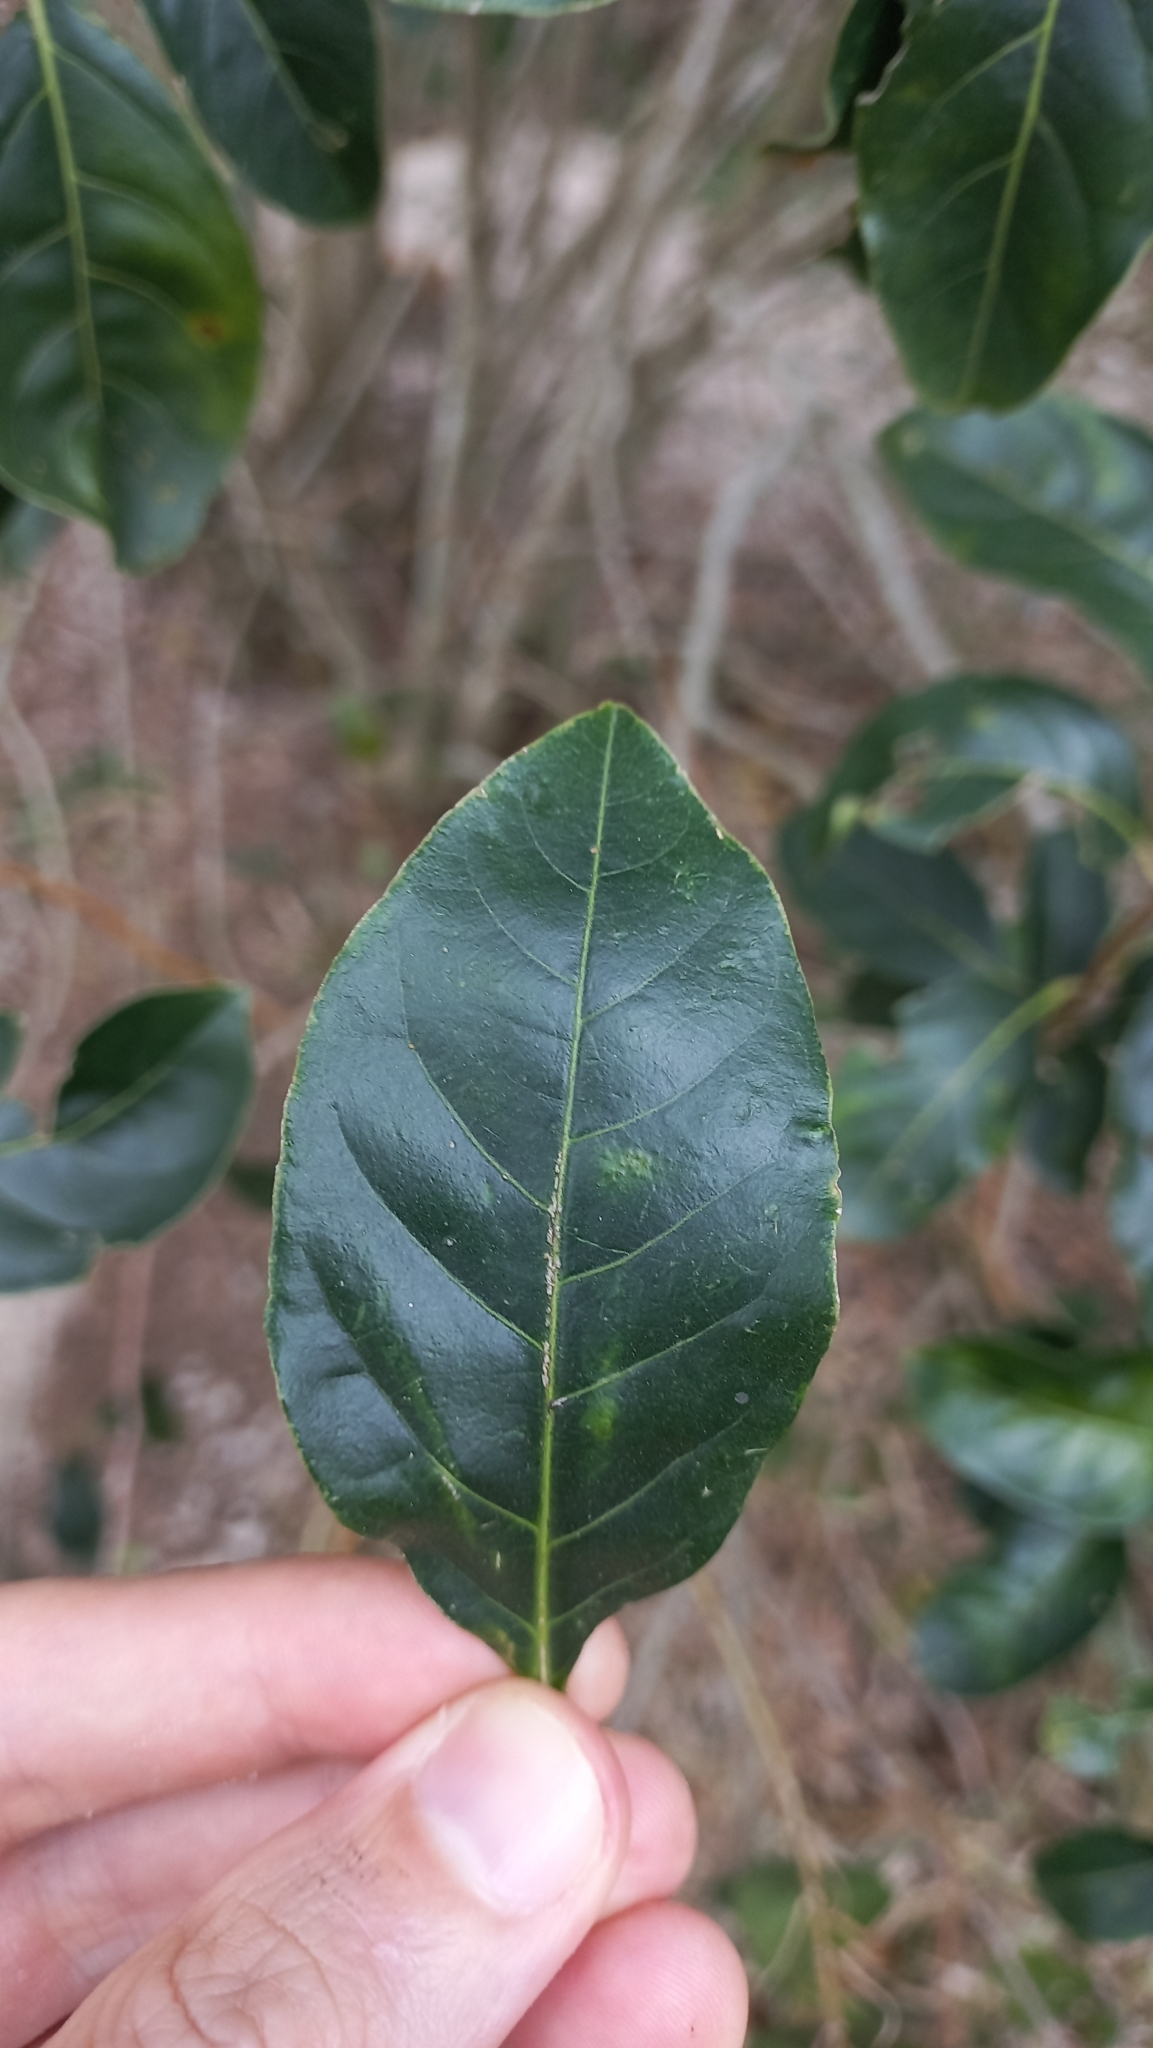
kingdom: Plantae
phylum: Tracheophyta
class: Magnoliopsida
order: Solanales
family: Solanaceae
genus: Solanum
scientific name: Solanum pseudoquina
